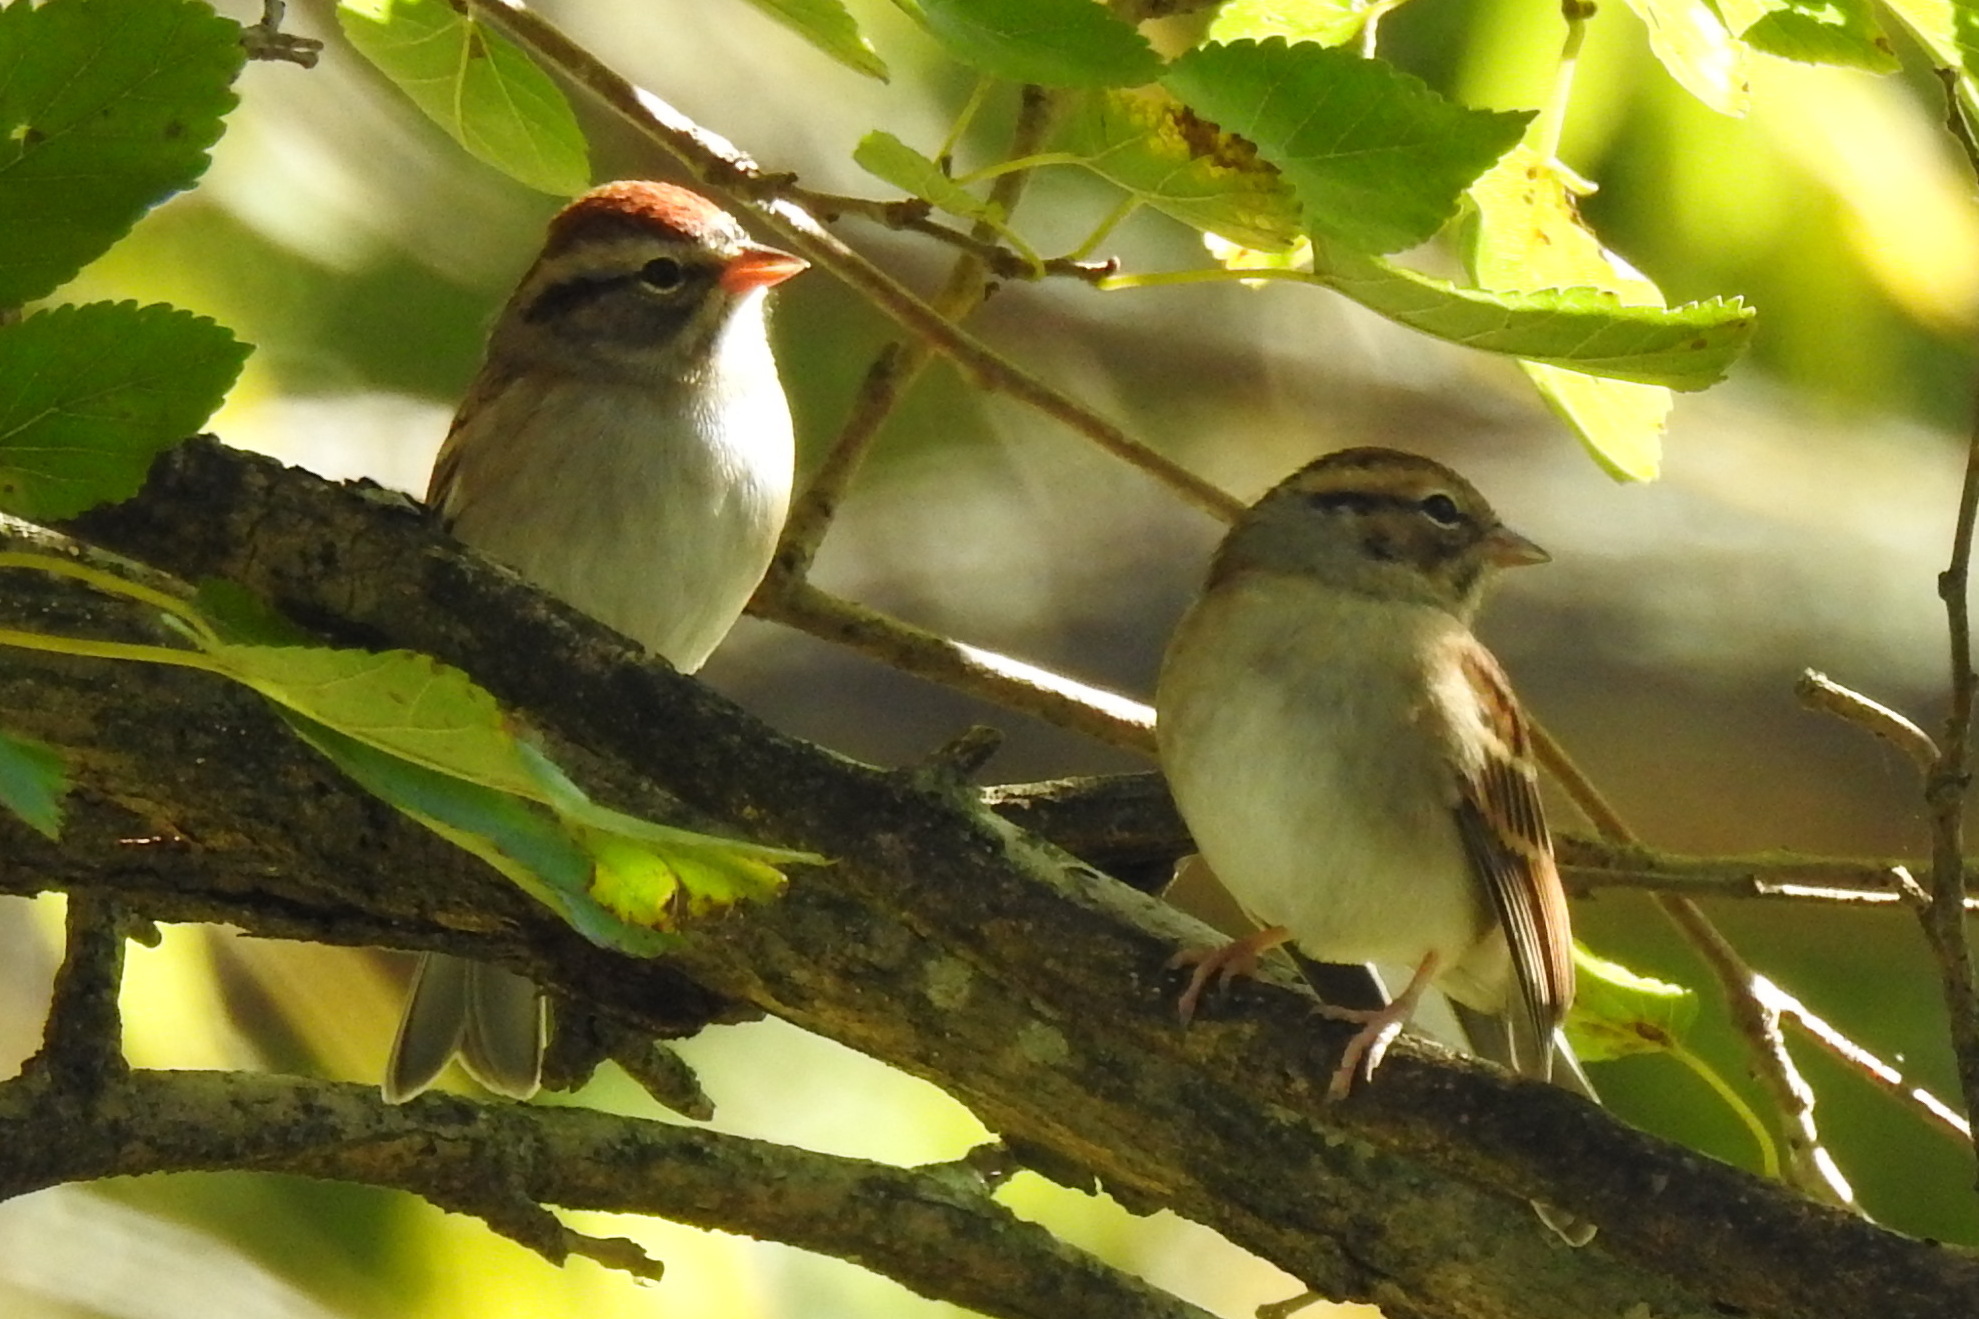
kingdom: Animalia
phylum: Chordata
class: Aves
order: Passeriformes
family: Passerellidae
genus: Spizella
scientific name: Spizella passerina
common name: Chipping sparrow
